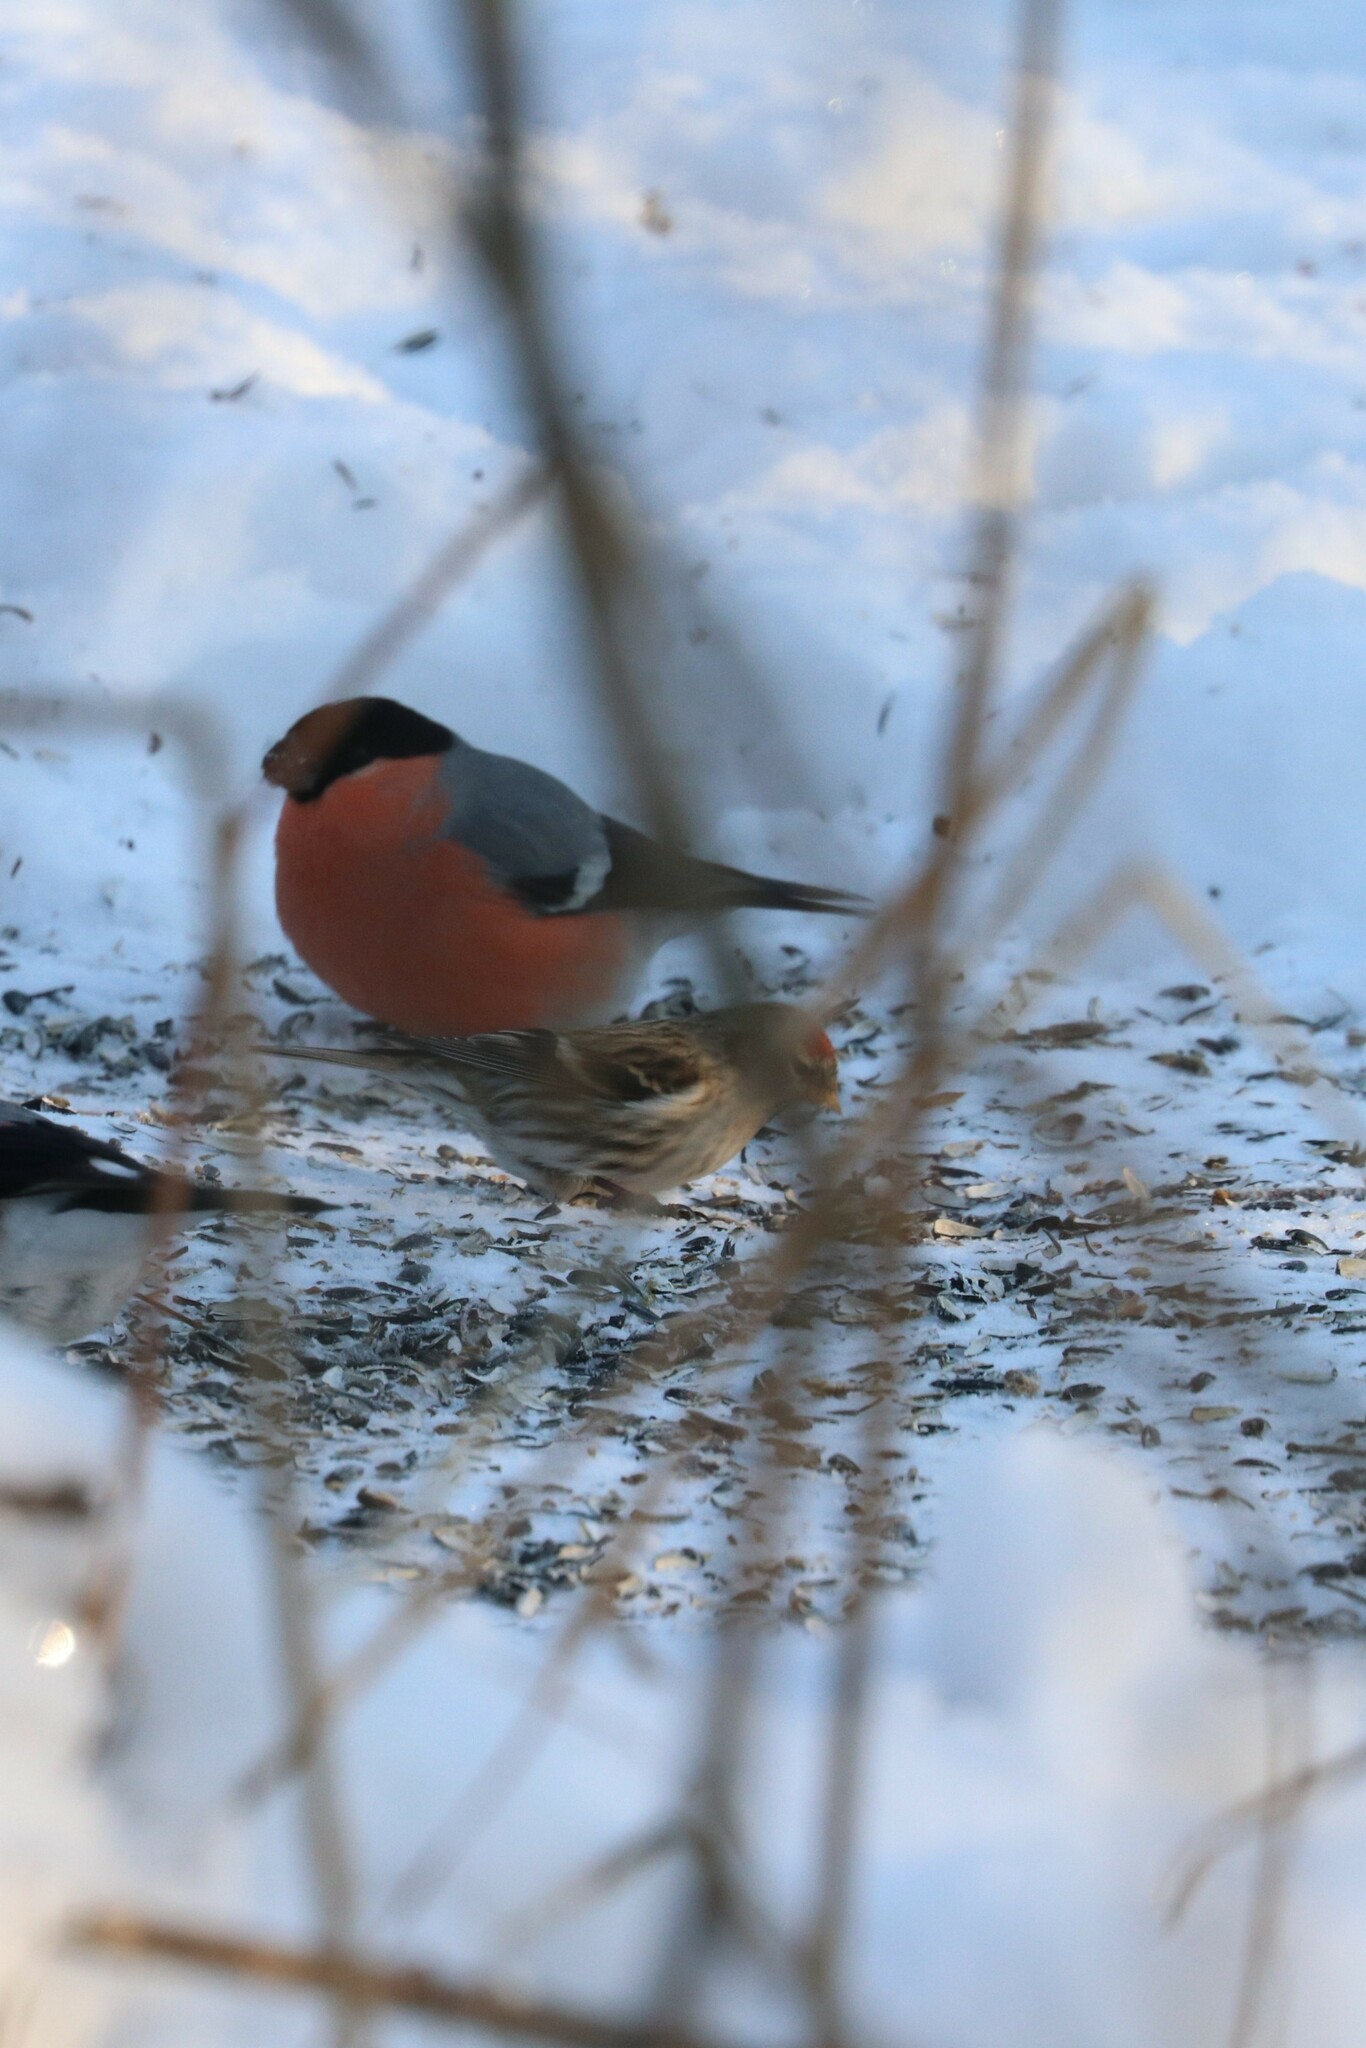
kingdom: Animalia
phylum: Chordata
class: Aves
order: Passeriformes
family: Fringillidae
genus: Acanthis
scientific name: Acanthis flammea
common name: Common redpoll
